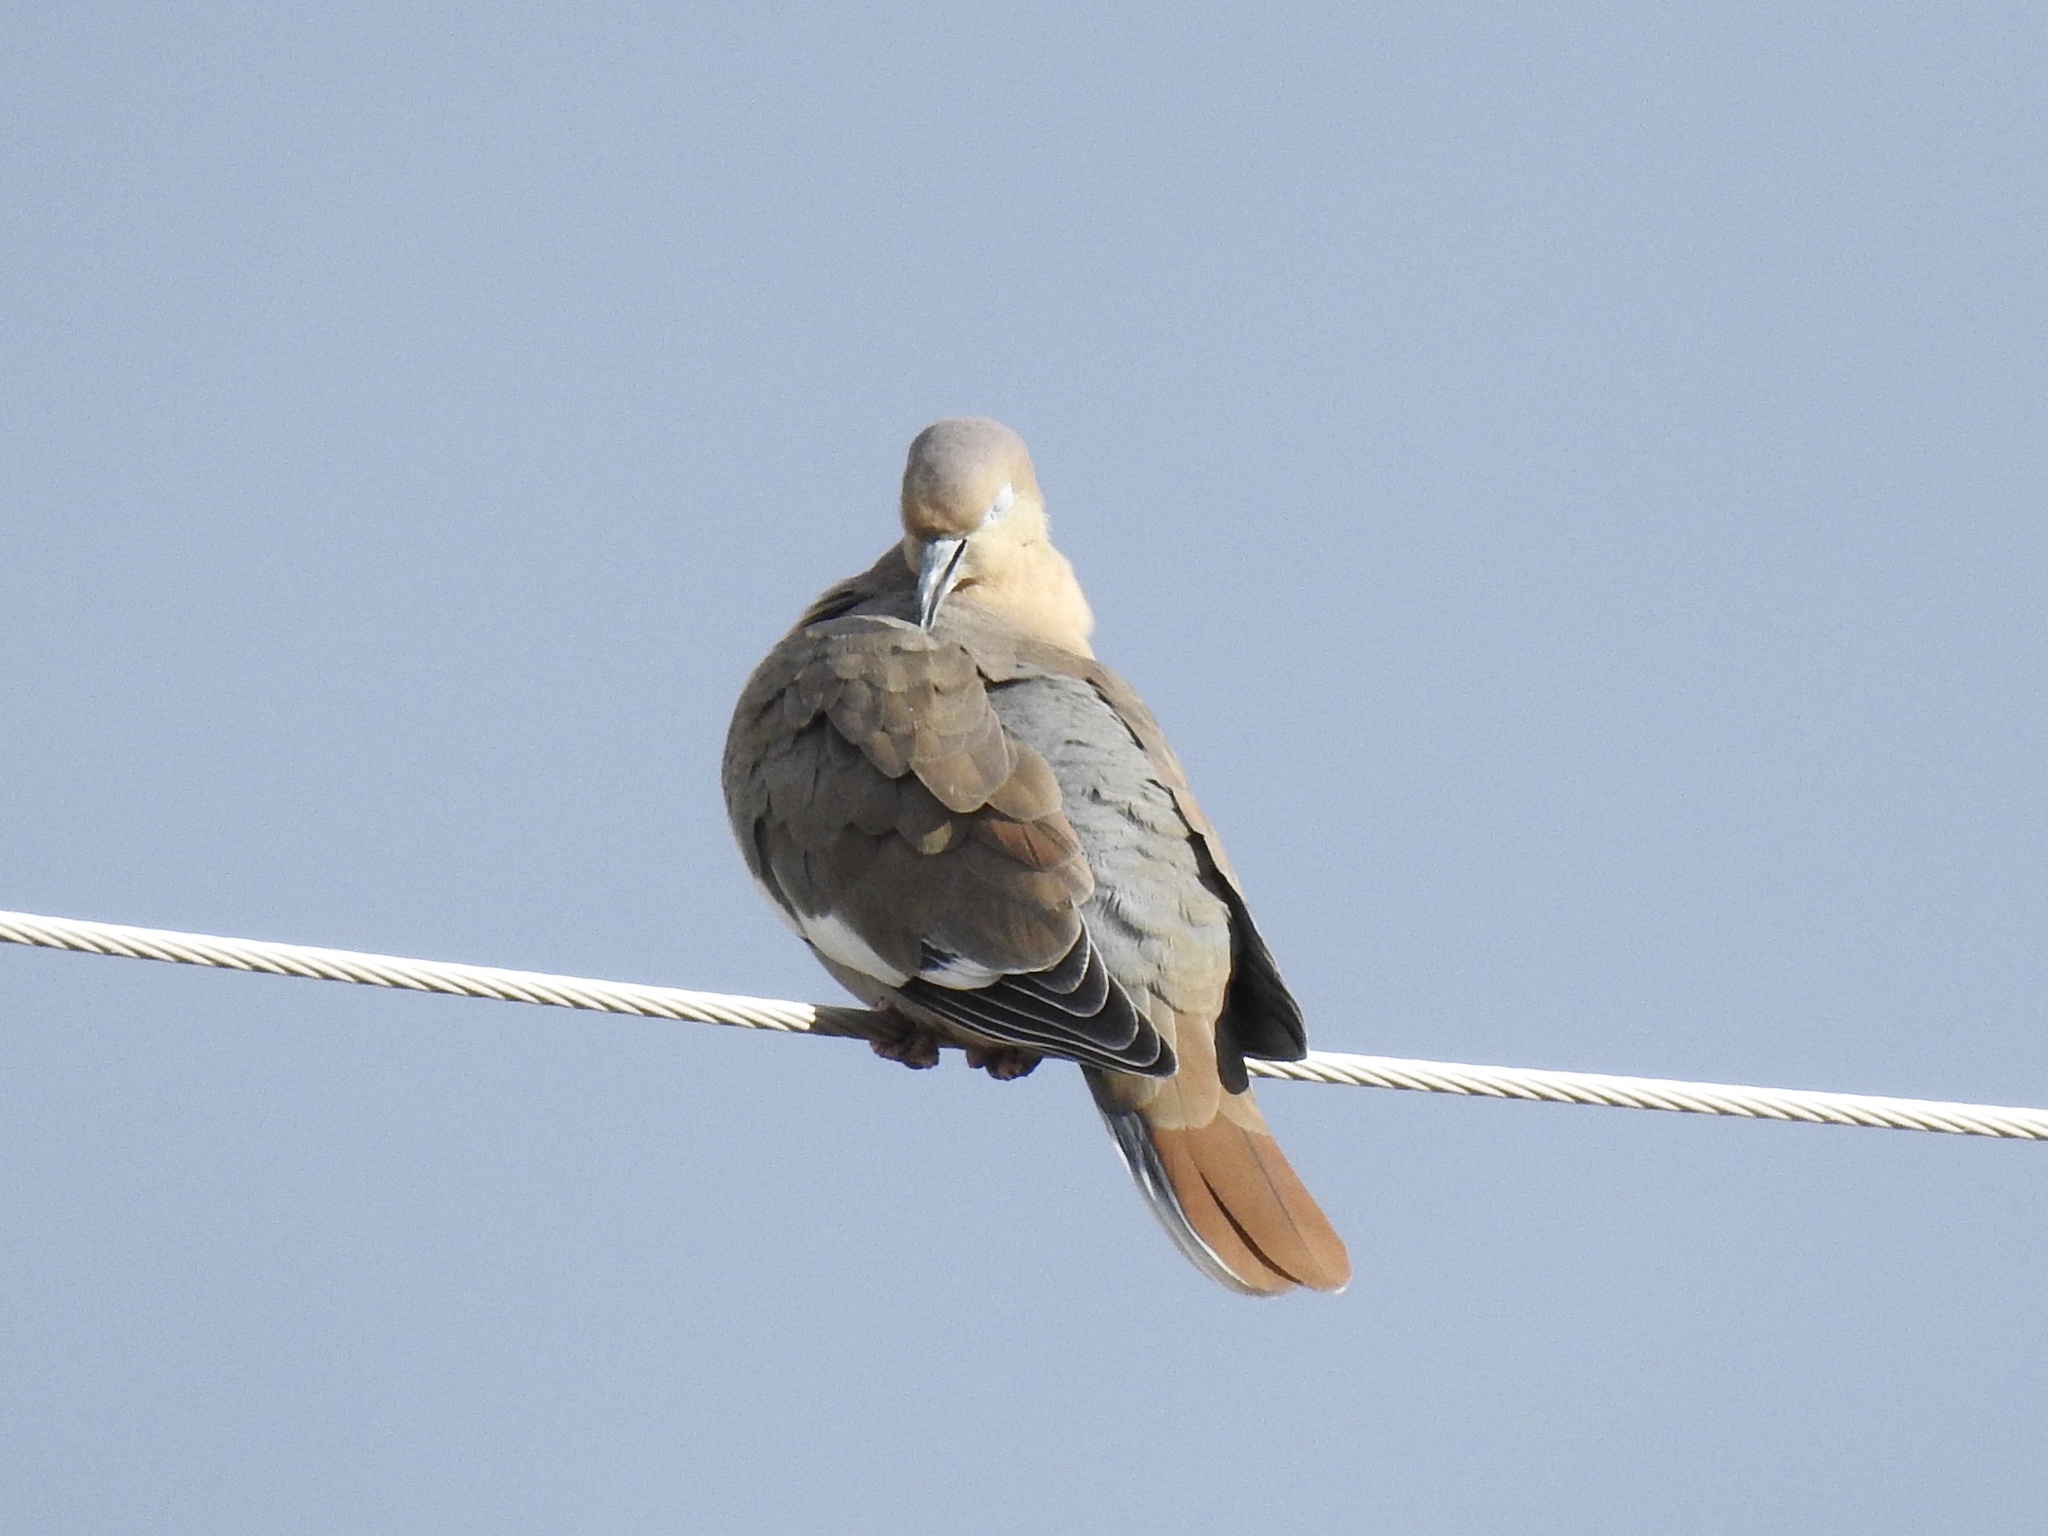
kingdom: Animalia
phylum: Chordata
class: Aves
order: Columbiformes
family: Columbidae
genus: Zenaida
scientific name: Zenaida asiatica
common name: White-winged dove
